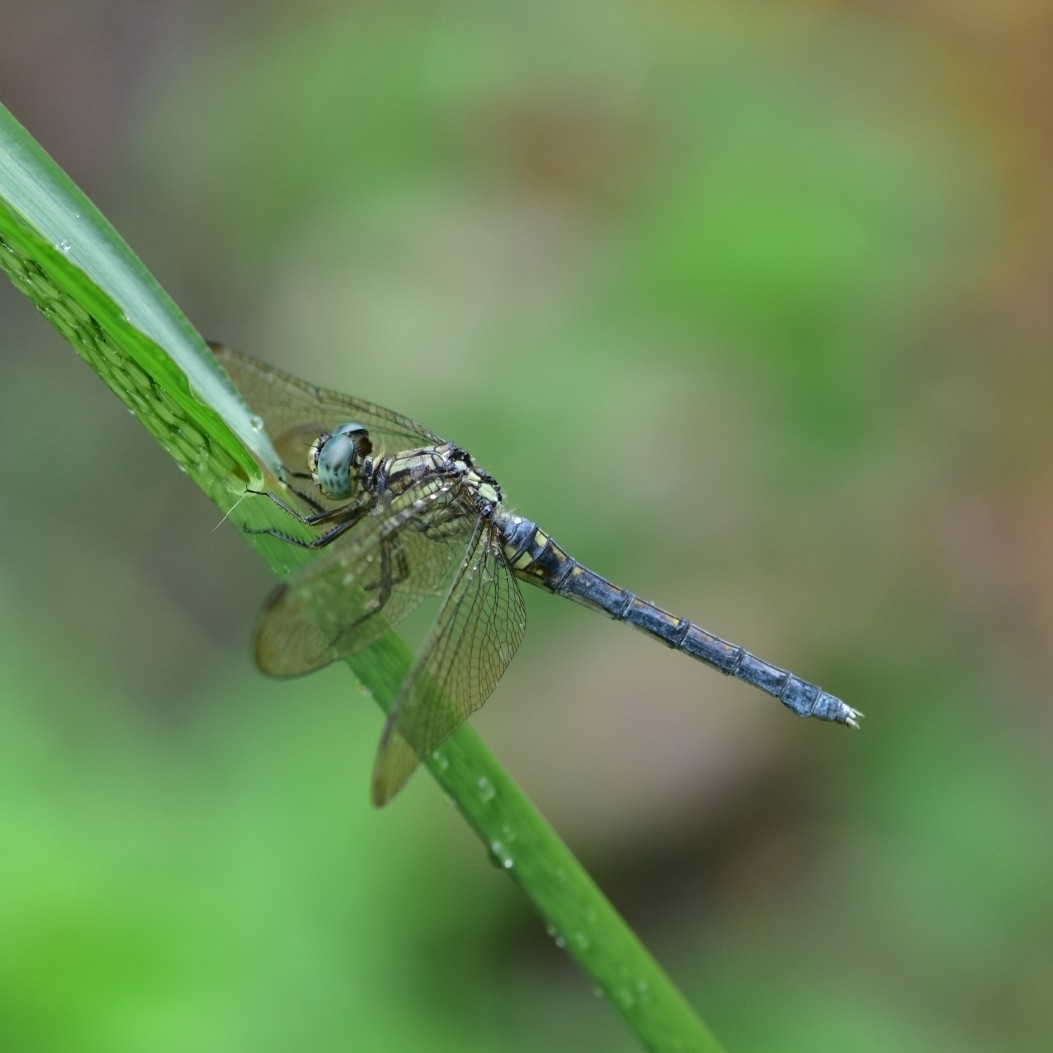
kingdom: Animalia
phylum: Arthropoda
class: Insecta
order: Odonata
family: Libellulidae
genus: Orthetrum
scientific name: Orthetrum luzonicum
